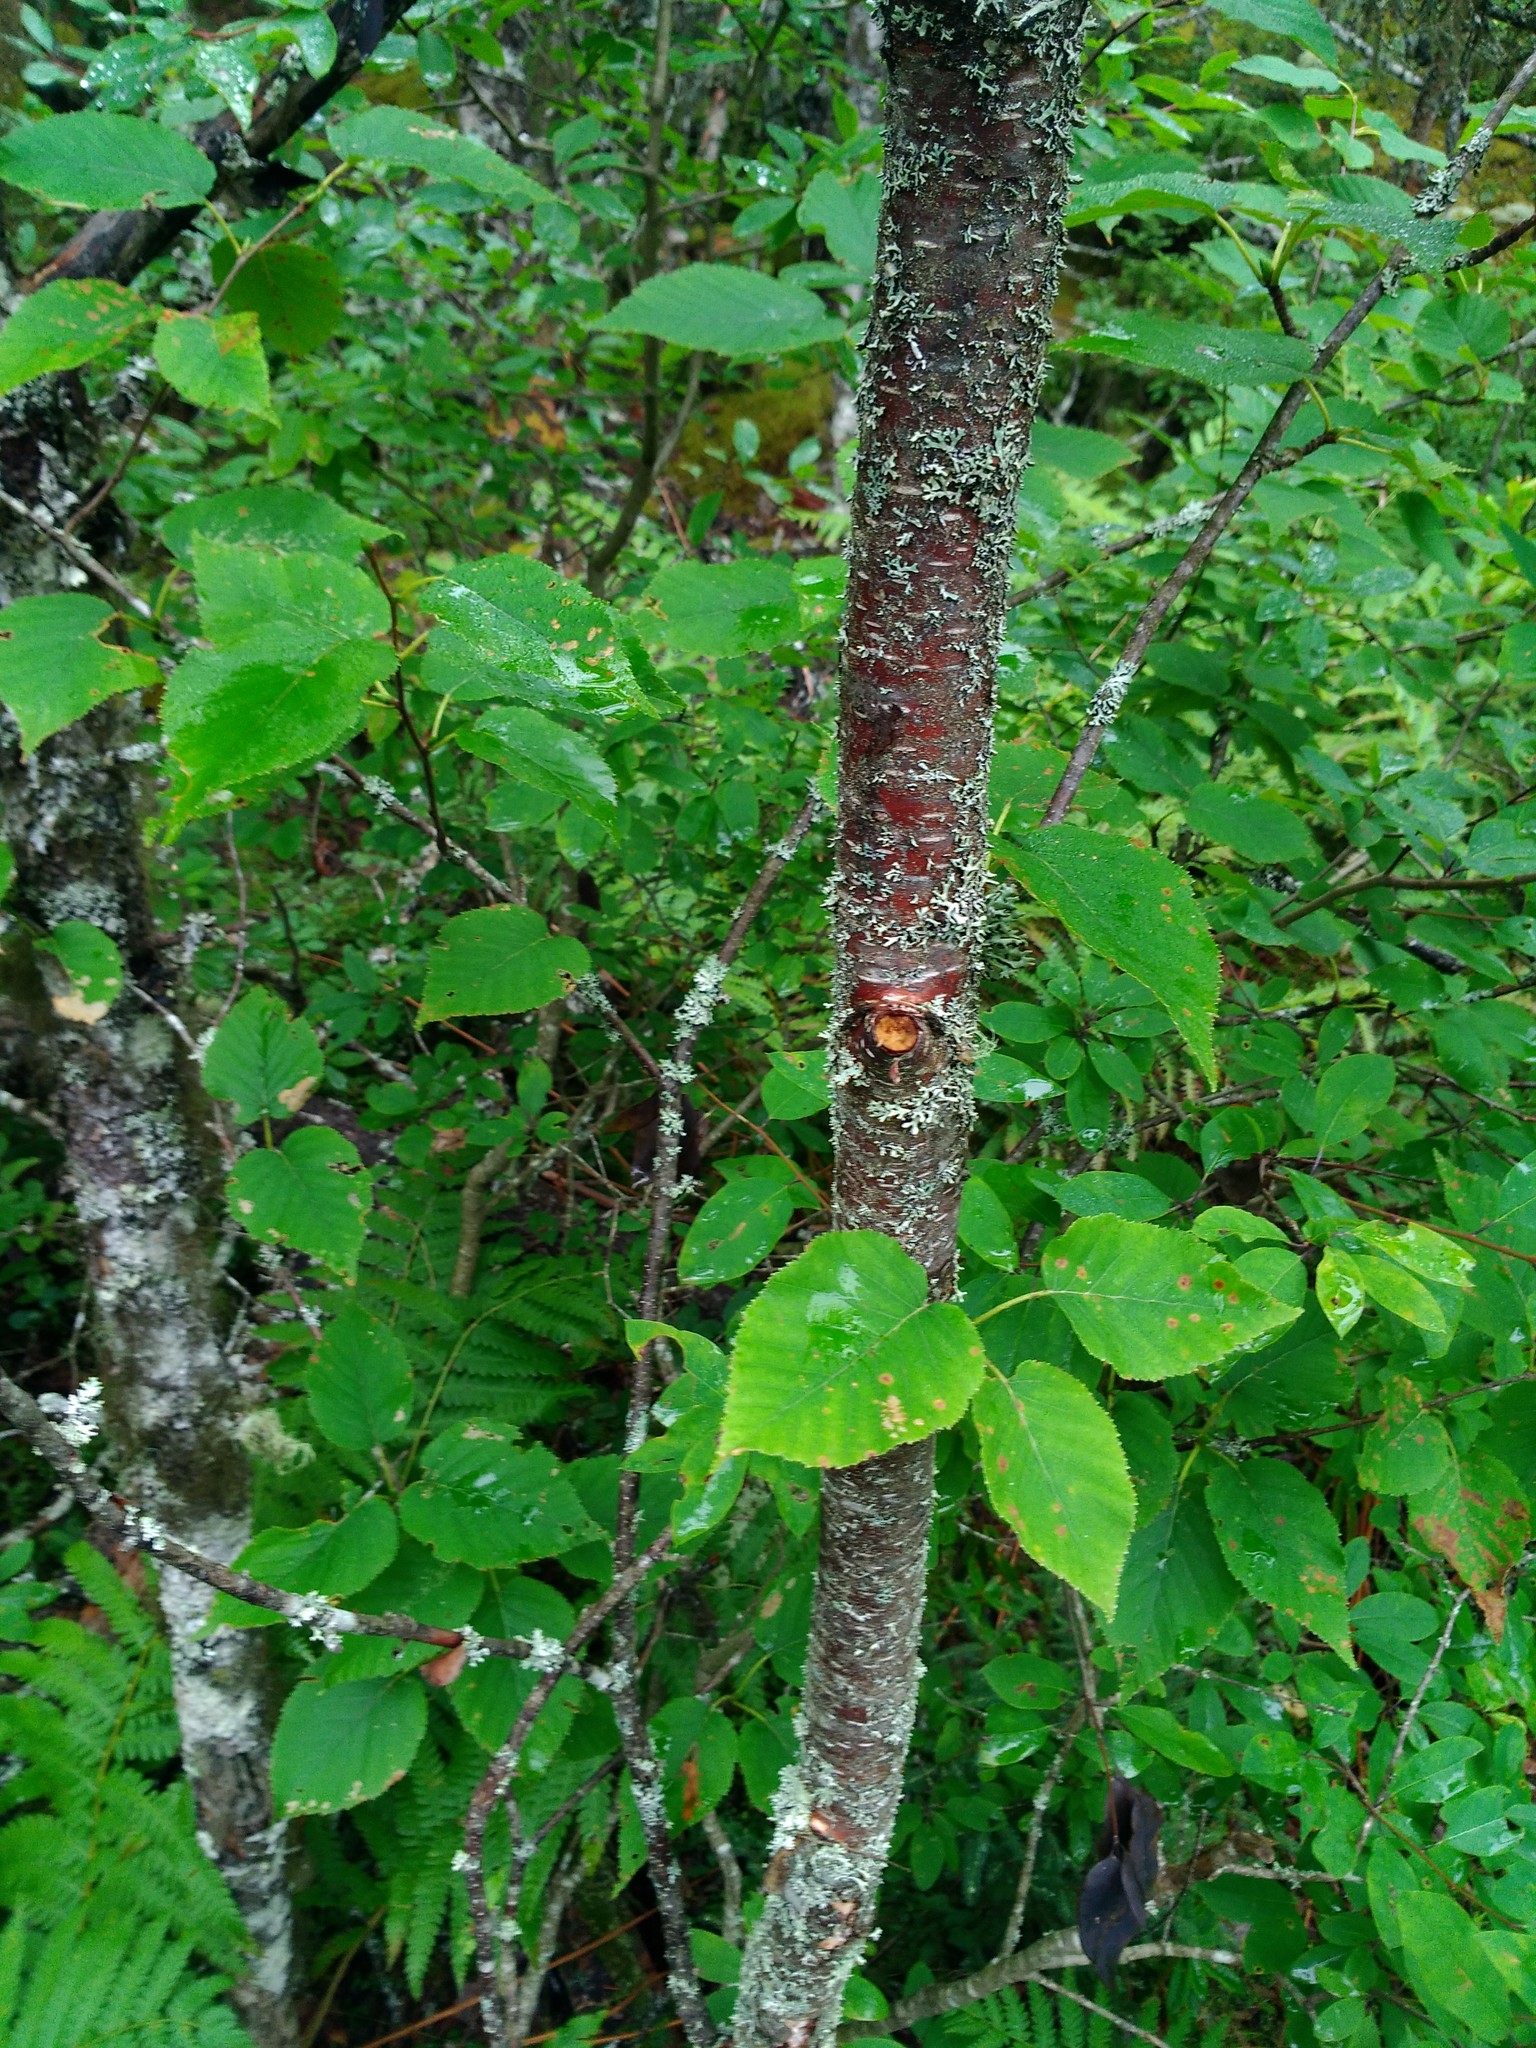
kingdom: Plantae
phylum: Tracheophyta
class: Magnoliopsida
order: Fagales
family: Betulaceae
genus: Betula
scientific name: Betula alleghaniensis
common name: Yellow birch
